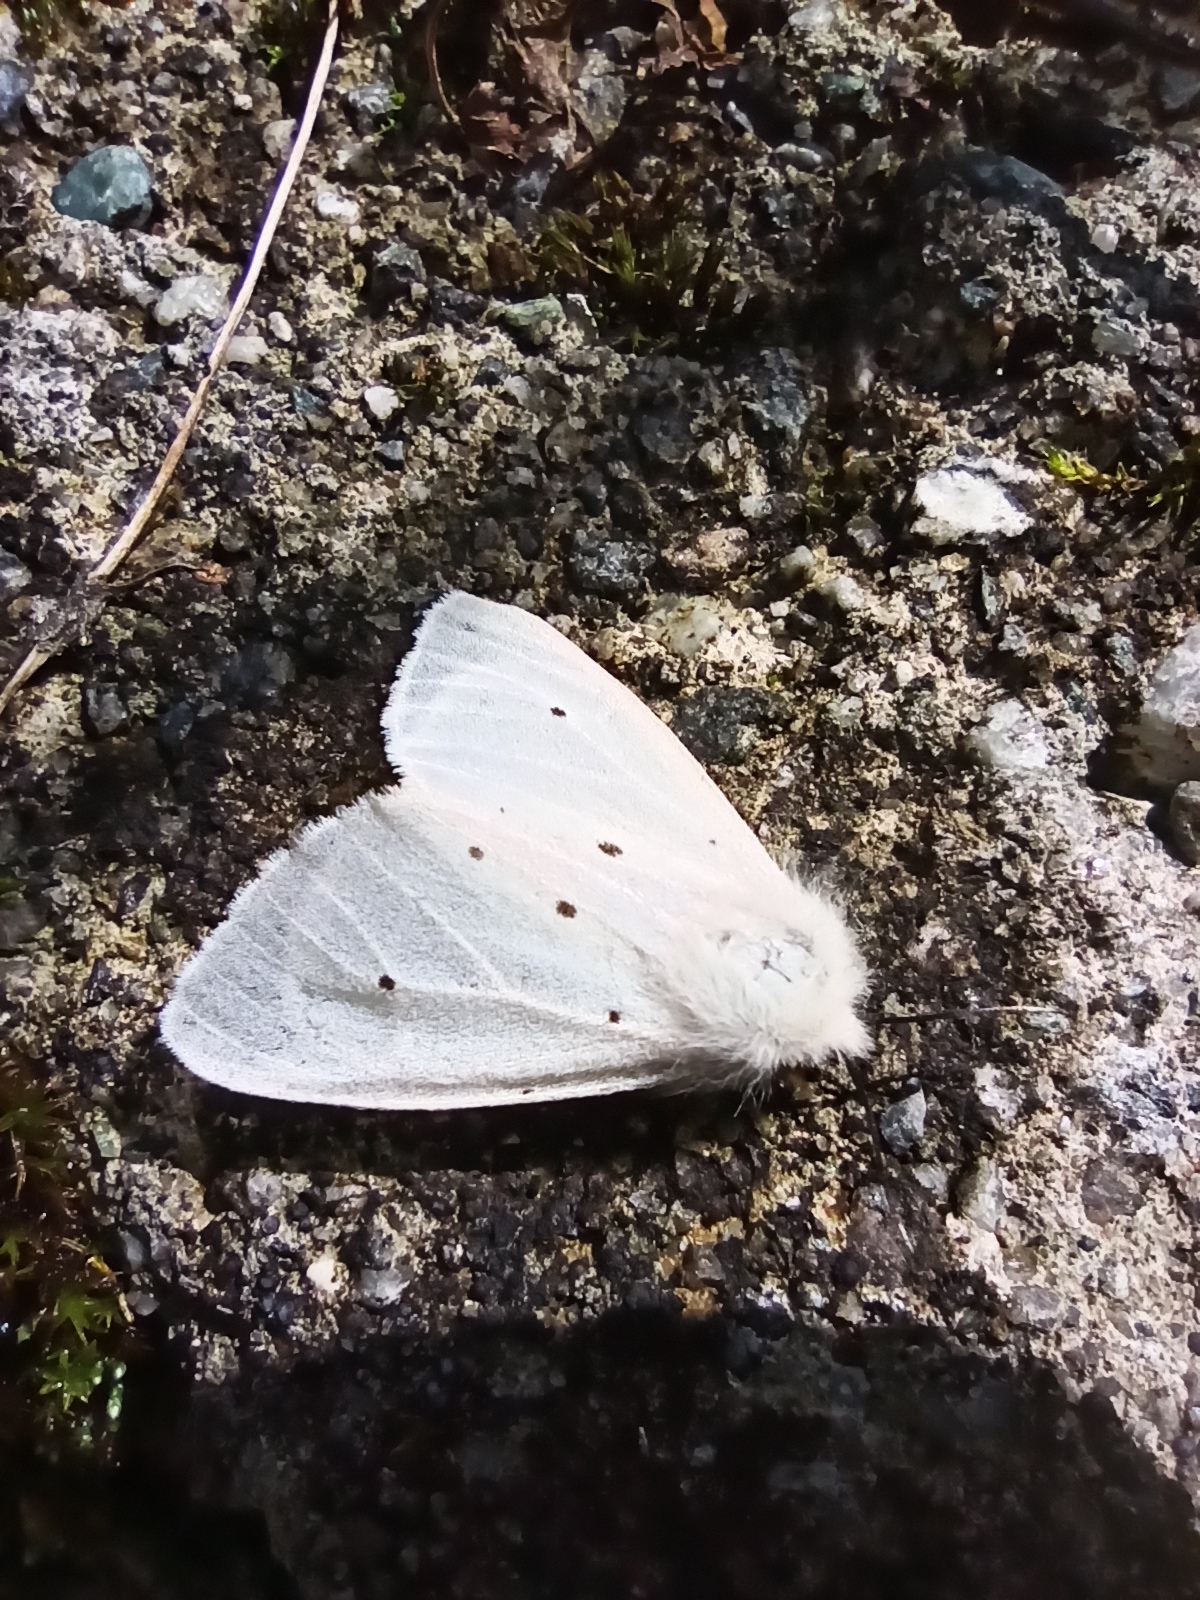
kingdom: Animalia
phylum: Arthropoda
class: Insecta
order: Lepidoptera
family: Erebidae
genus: Diaphora
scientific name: Diaphora mendica
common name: Muslin moth
